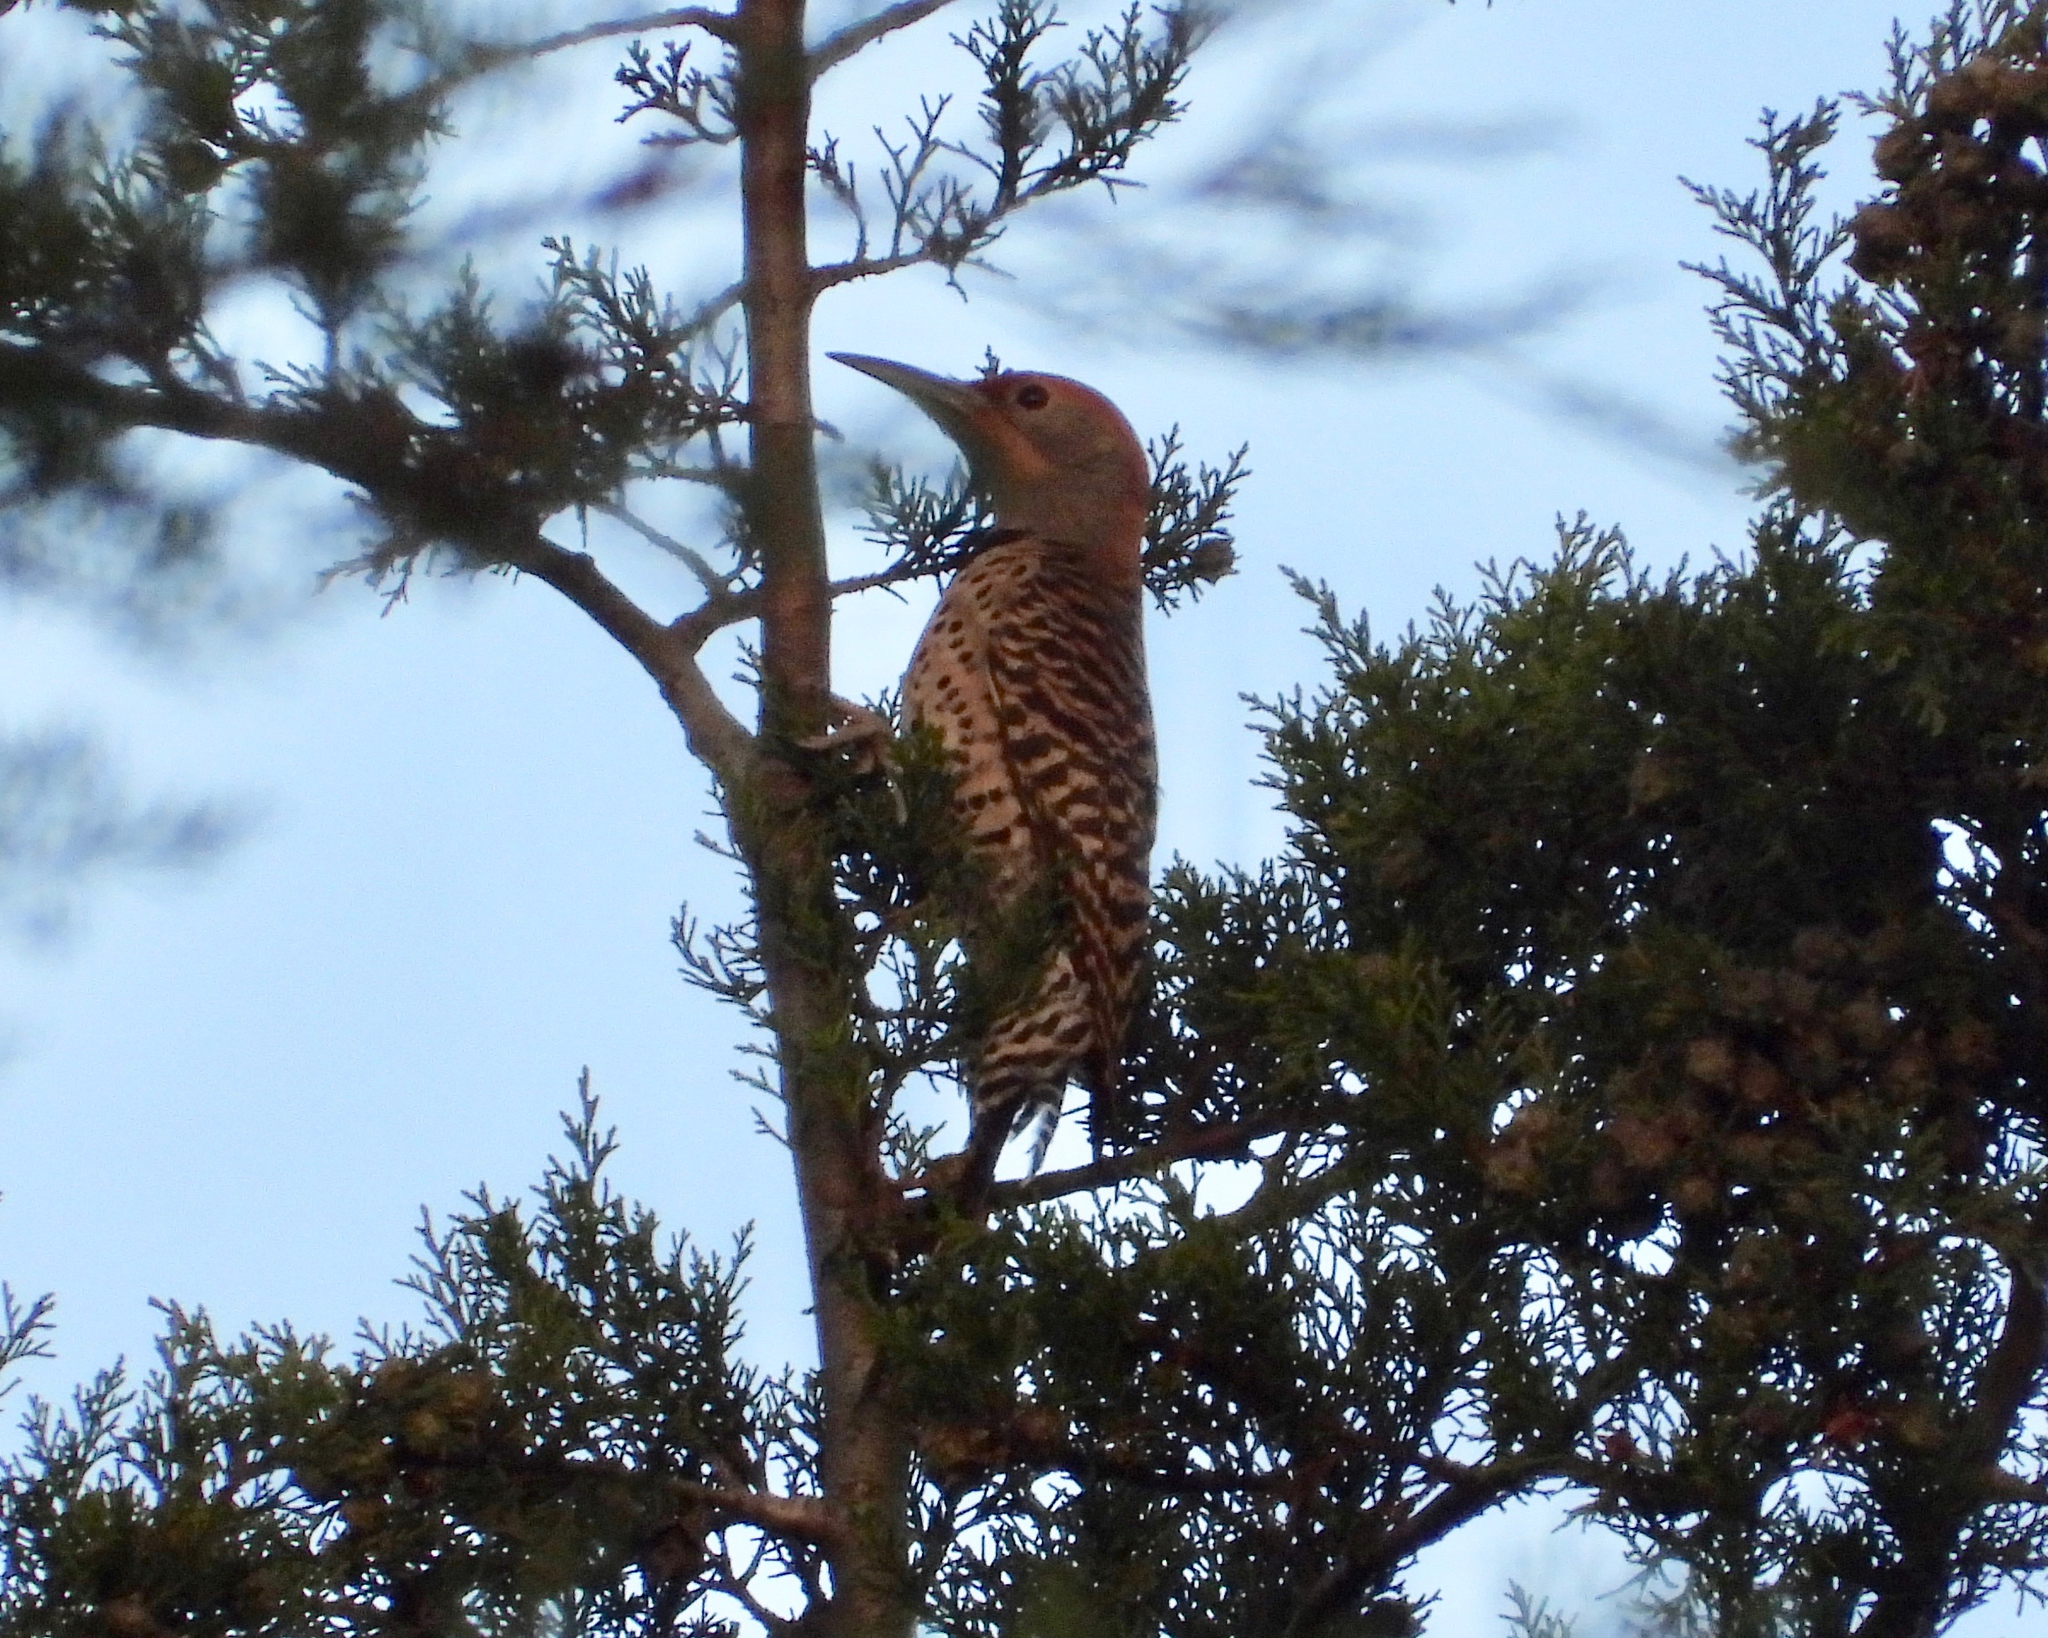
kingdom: Animalia
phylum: Chordata
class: Aves
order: Piciformes
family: Picidae
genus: Colaptes
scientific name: Colaptes auratus
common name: Northern flicker
